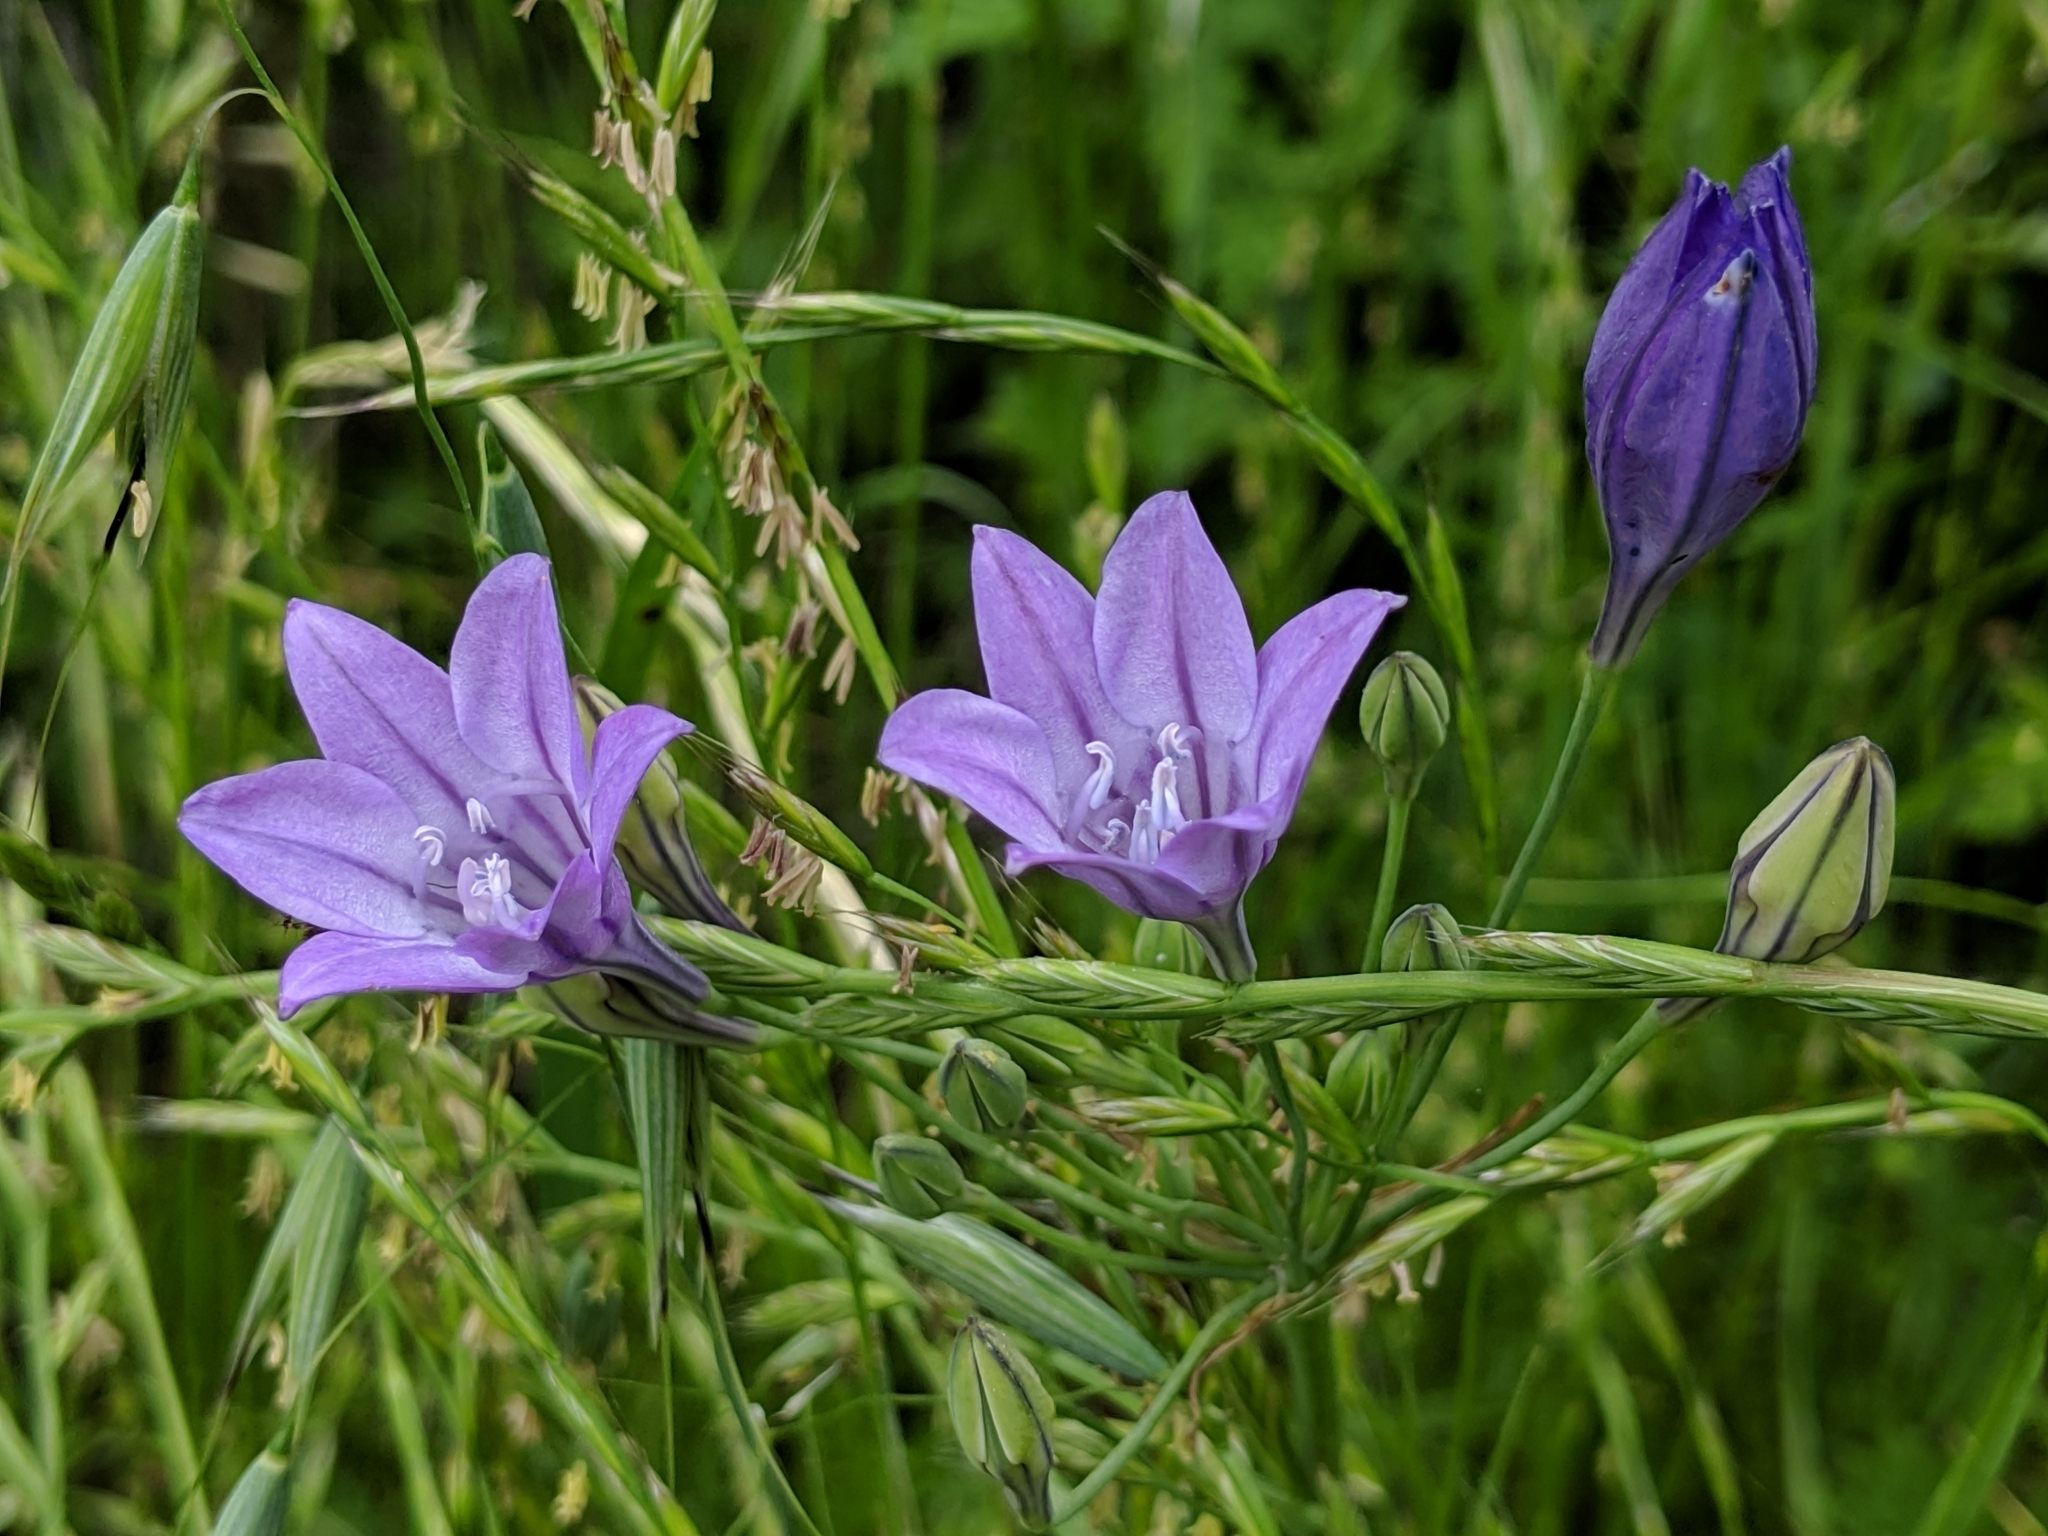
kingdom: Plantae
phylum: Tracheophyta
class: Liliopsida
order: Asparagales
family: Asparagaceae
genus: Triteleia
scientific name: Triteleia laxa
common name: Triplet-lily
